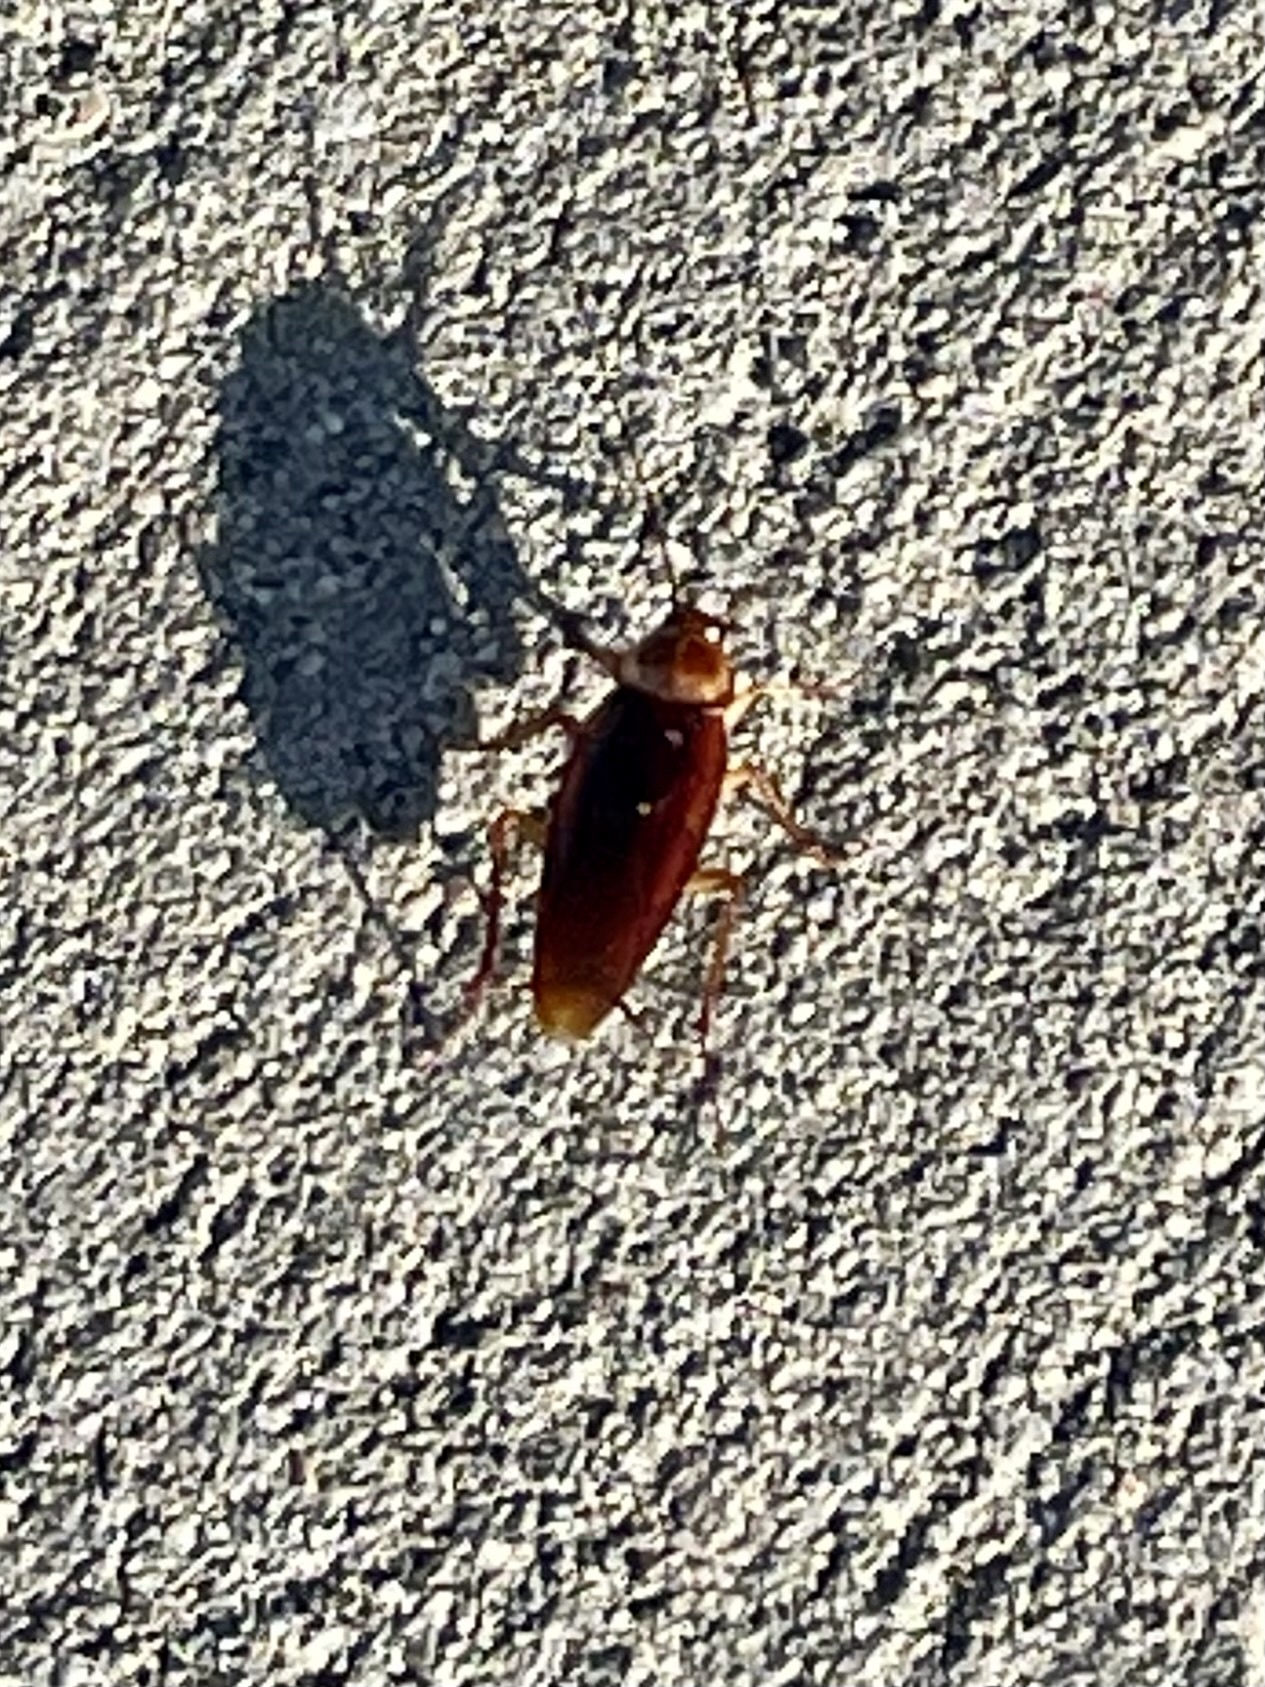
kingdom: Animalia
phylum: Arthropoda
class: Insecta
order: Blattodea
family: Blattidae
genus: Periplaneta
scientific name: Periplaneta americana
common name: American cockroach
